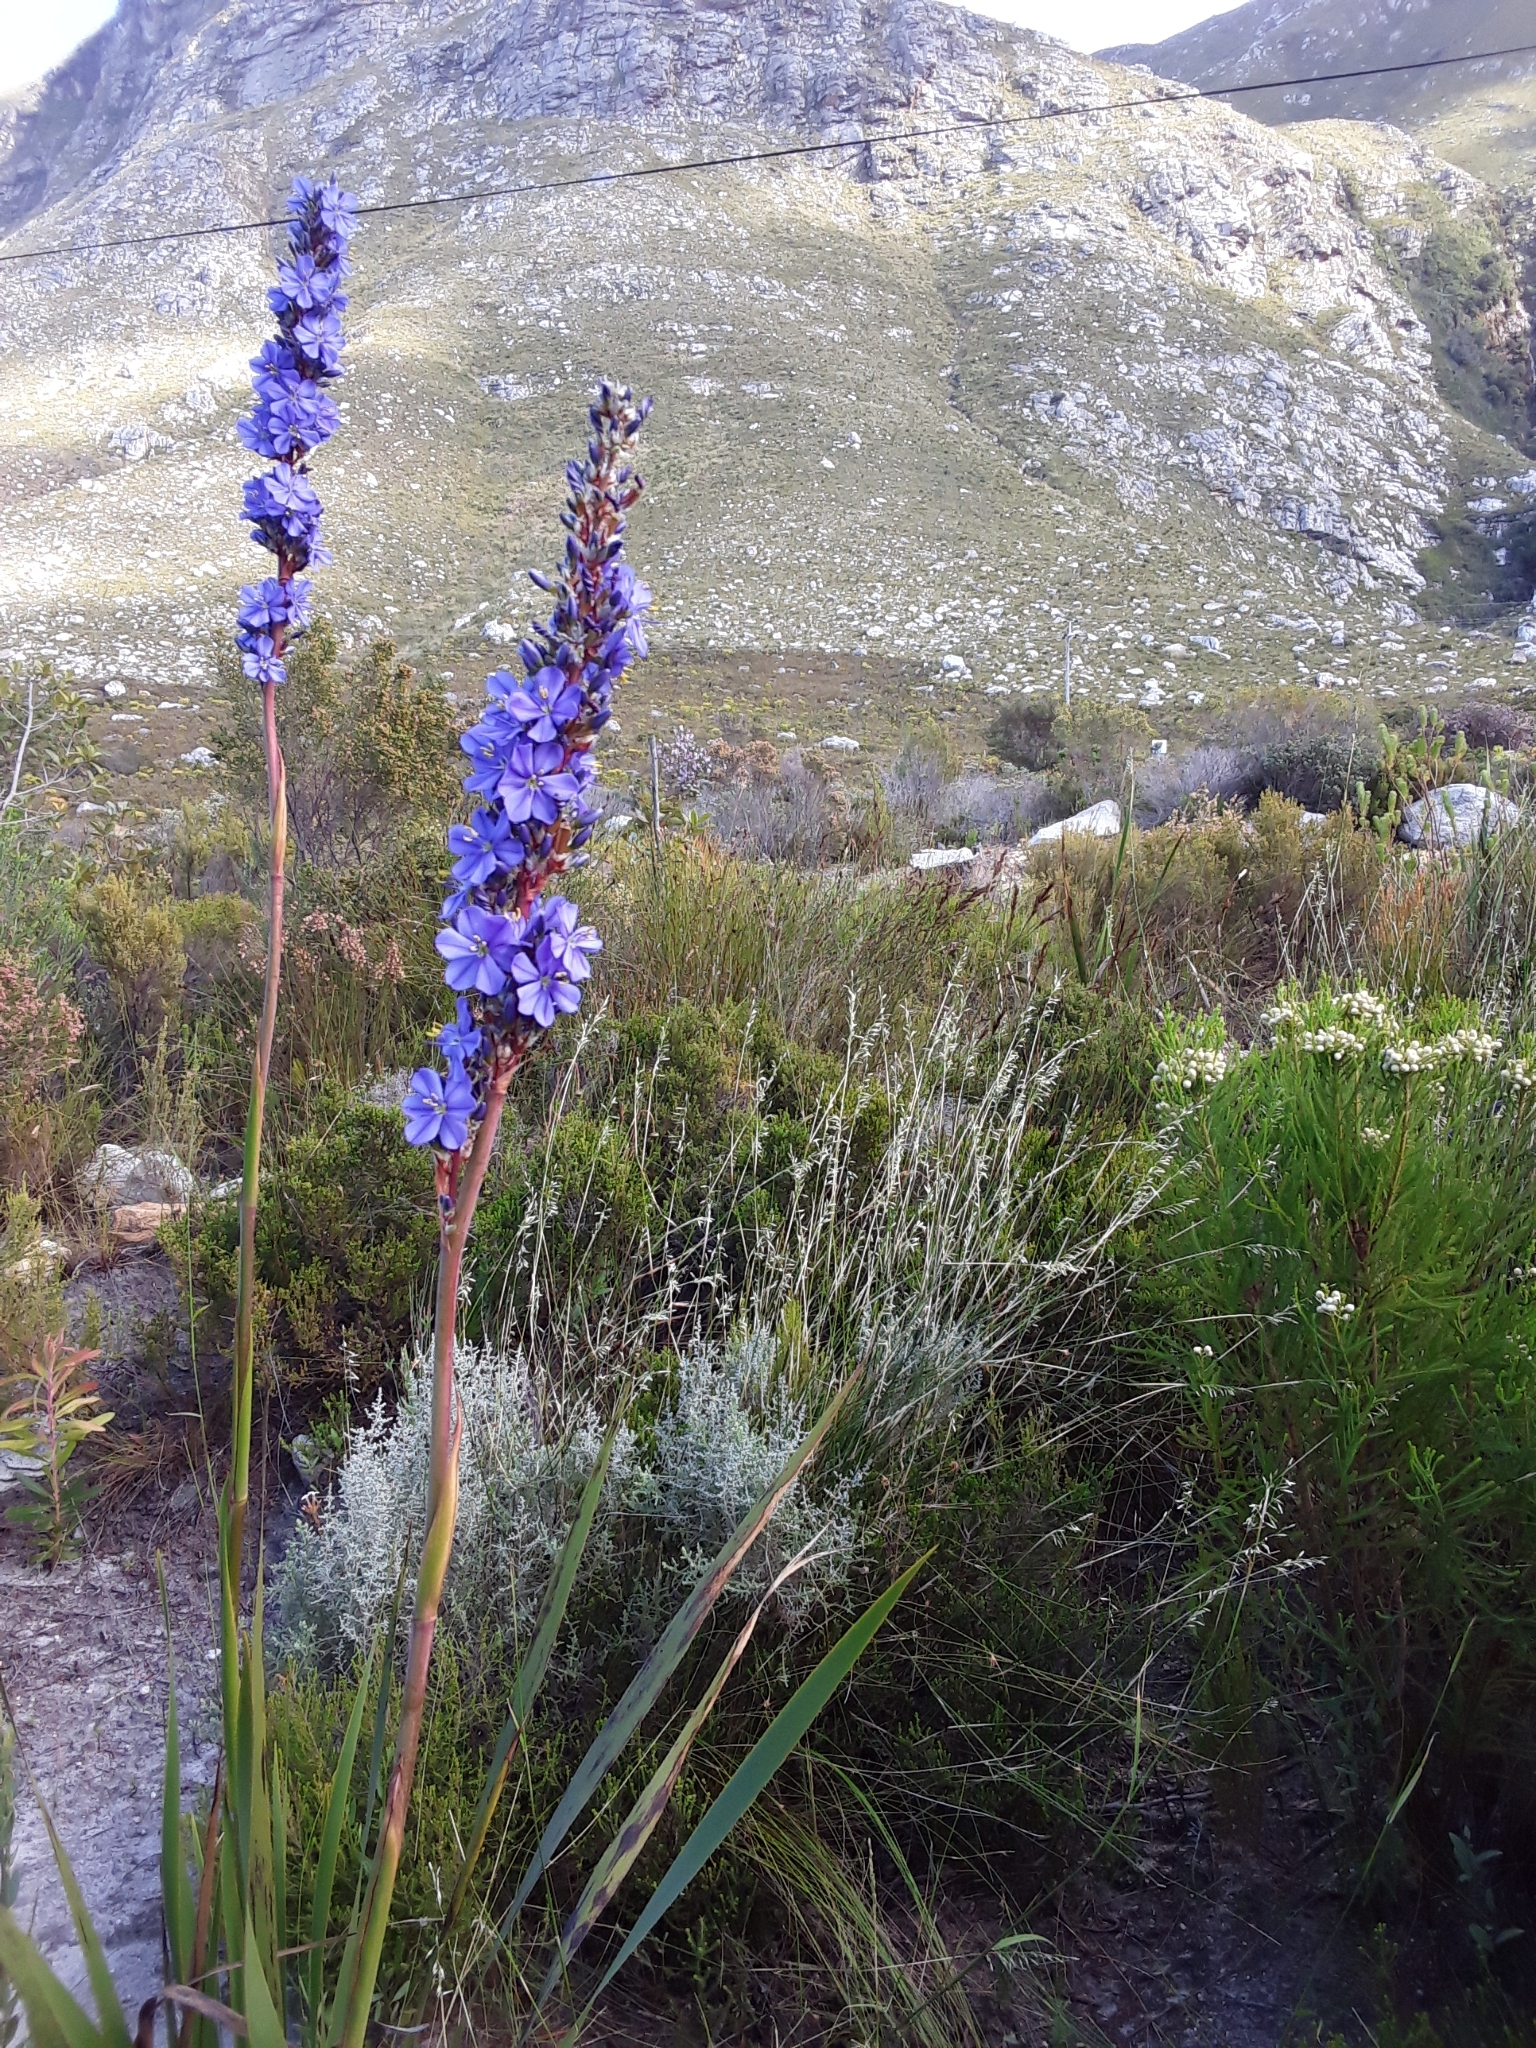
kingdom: Plantae
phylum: Tracheophyta
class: Liliopsida
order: Asparagales
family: Iridaceae
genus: Aristea
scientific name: Aristea capitata
